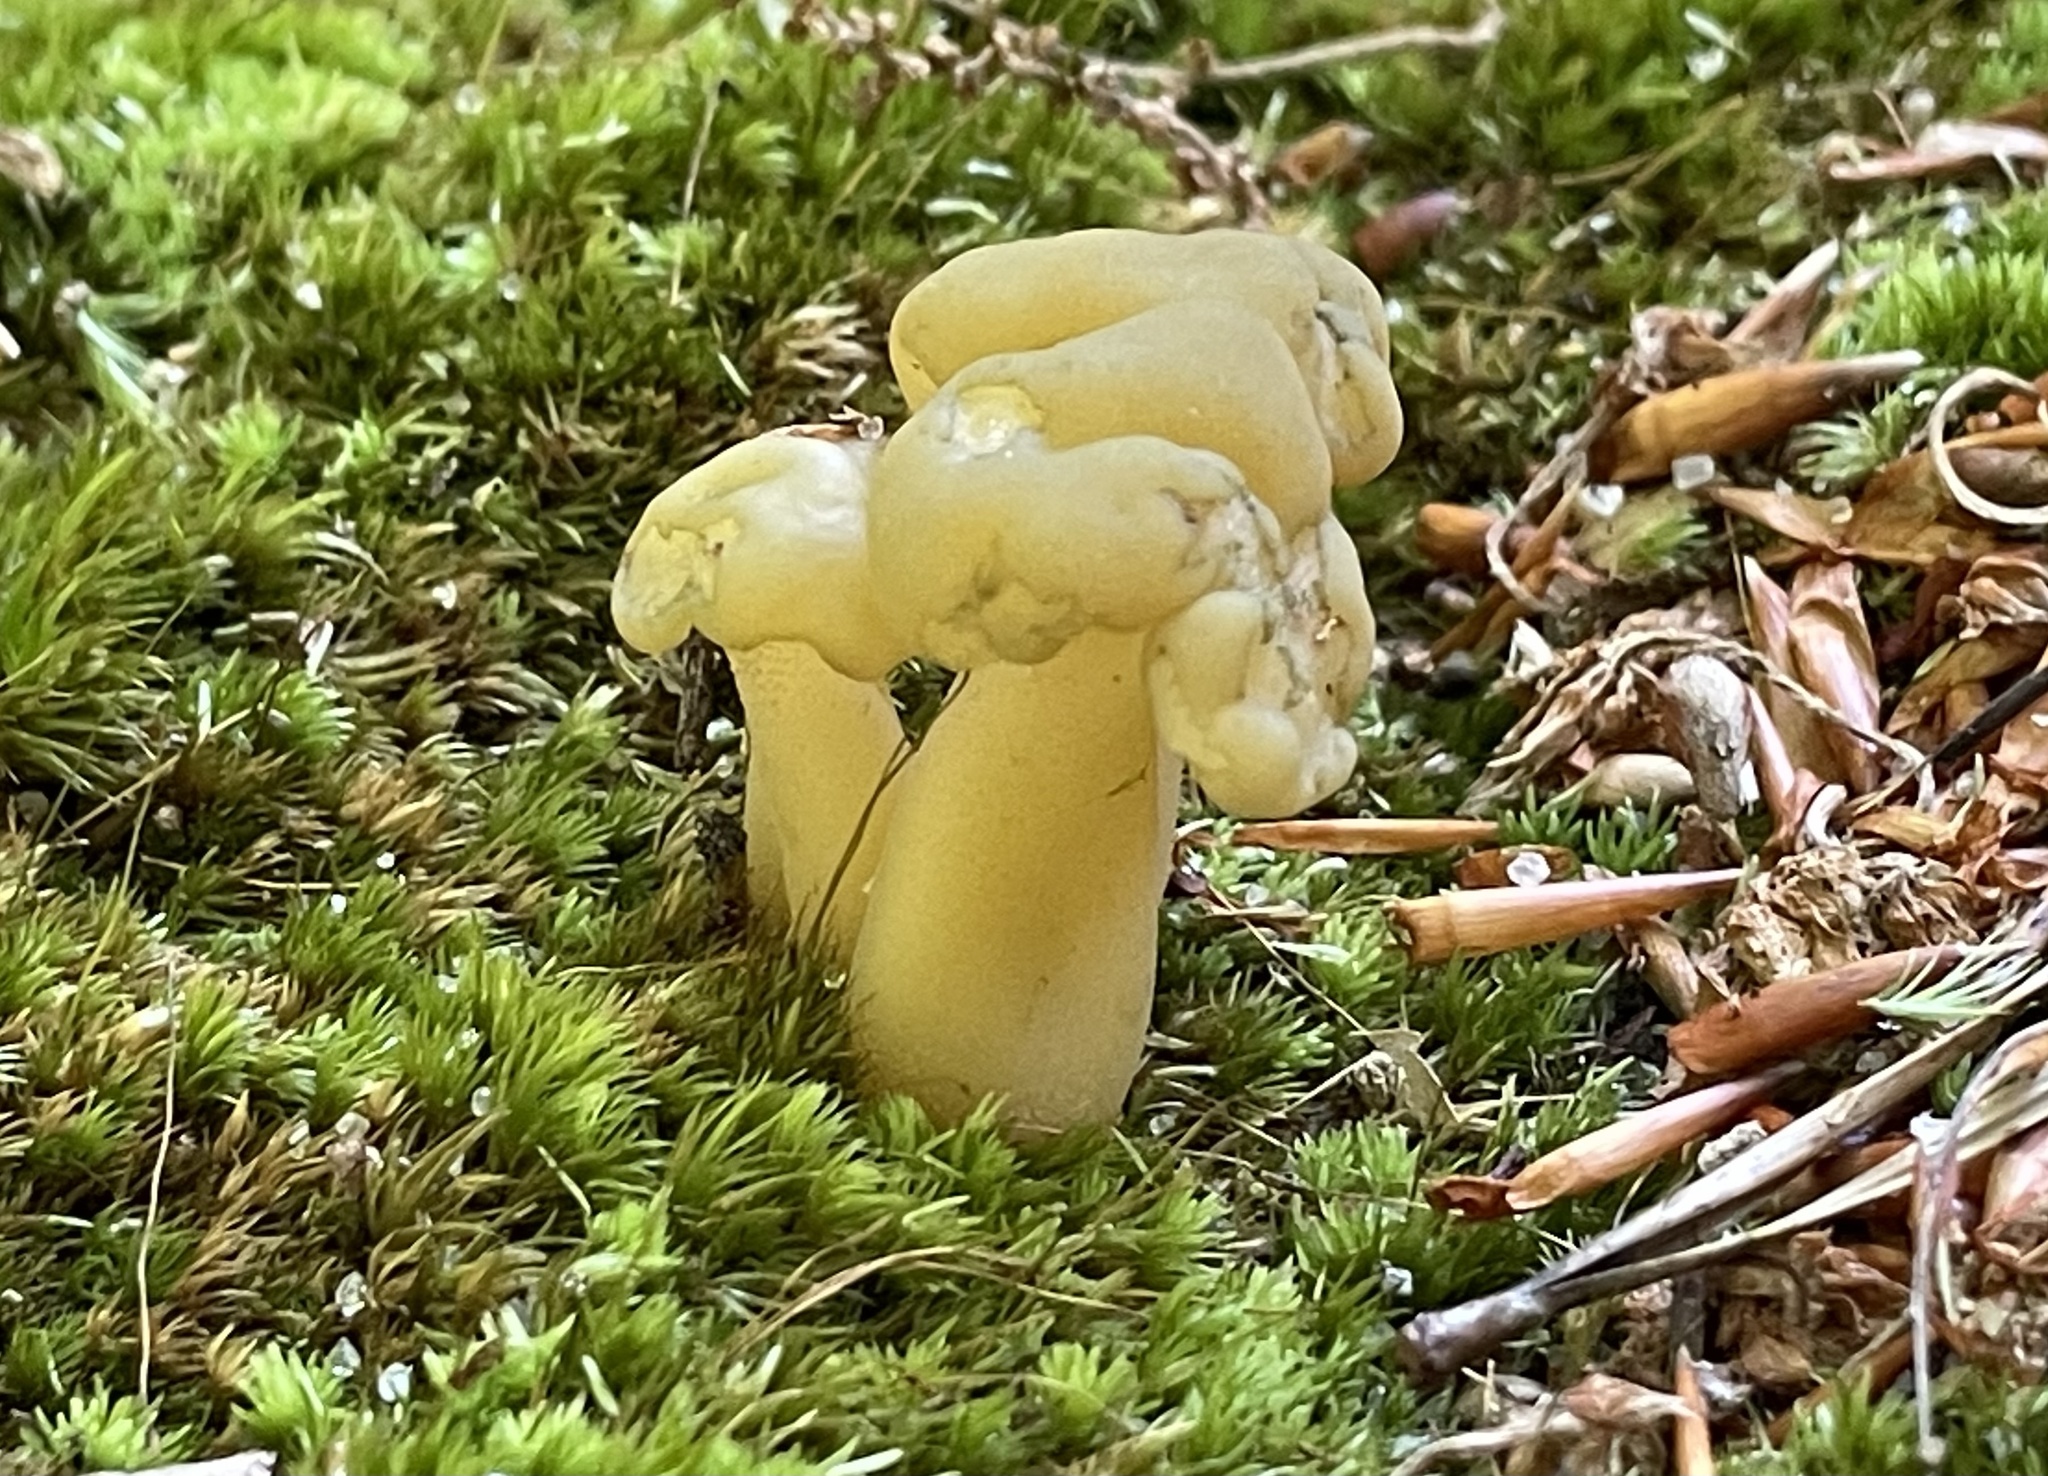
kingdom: Fungi
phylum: Ascomycota
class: Leotiomycetes
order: Leotiales
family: Leotiaceae
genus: Leotia
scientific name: Leotia lubrica
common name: Jellybaby
